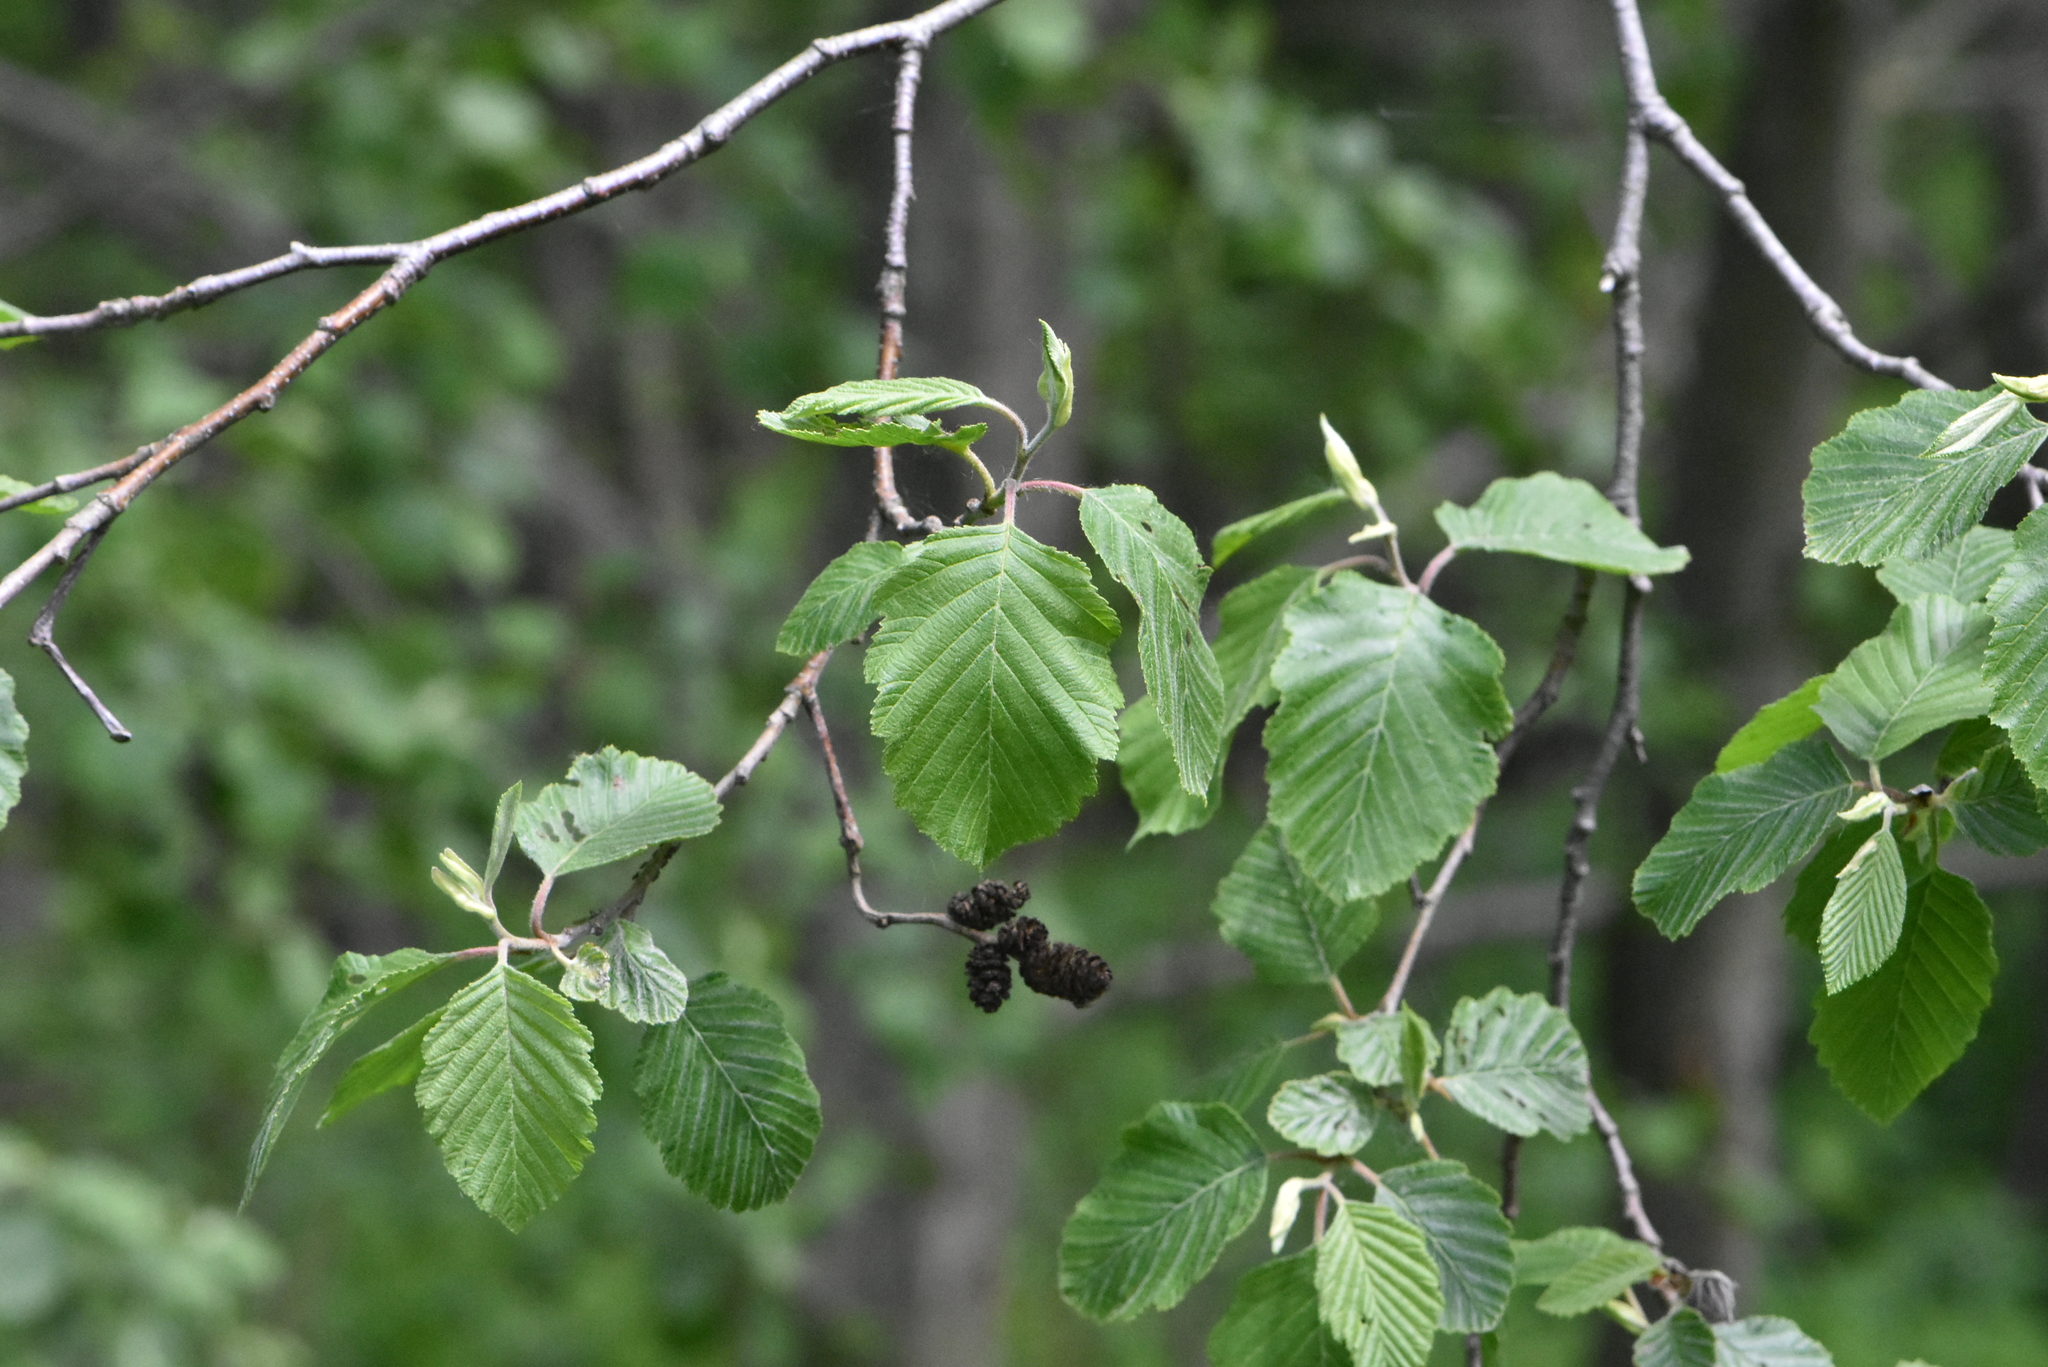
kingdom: Plantae
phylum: Tracheophyta
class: Magnoliopsida
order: Fagales
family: Betulaceae
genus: Alnus
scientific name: Alnus incana
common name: Grey alder
